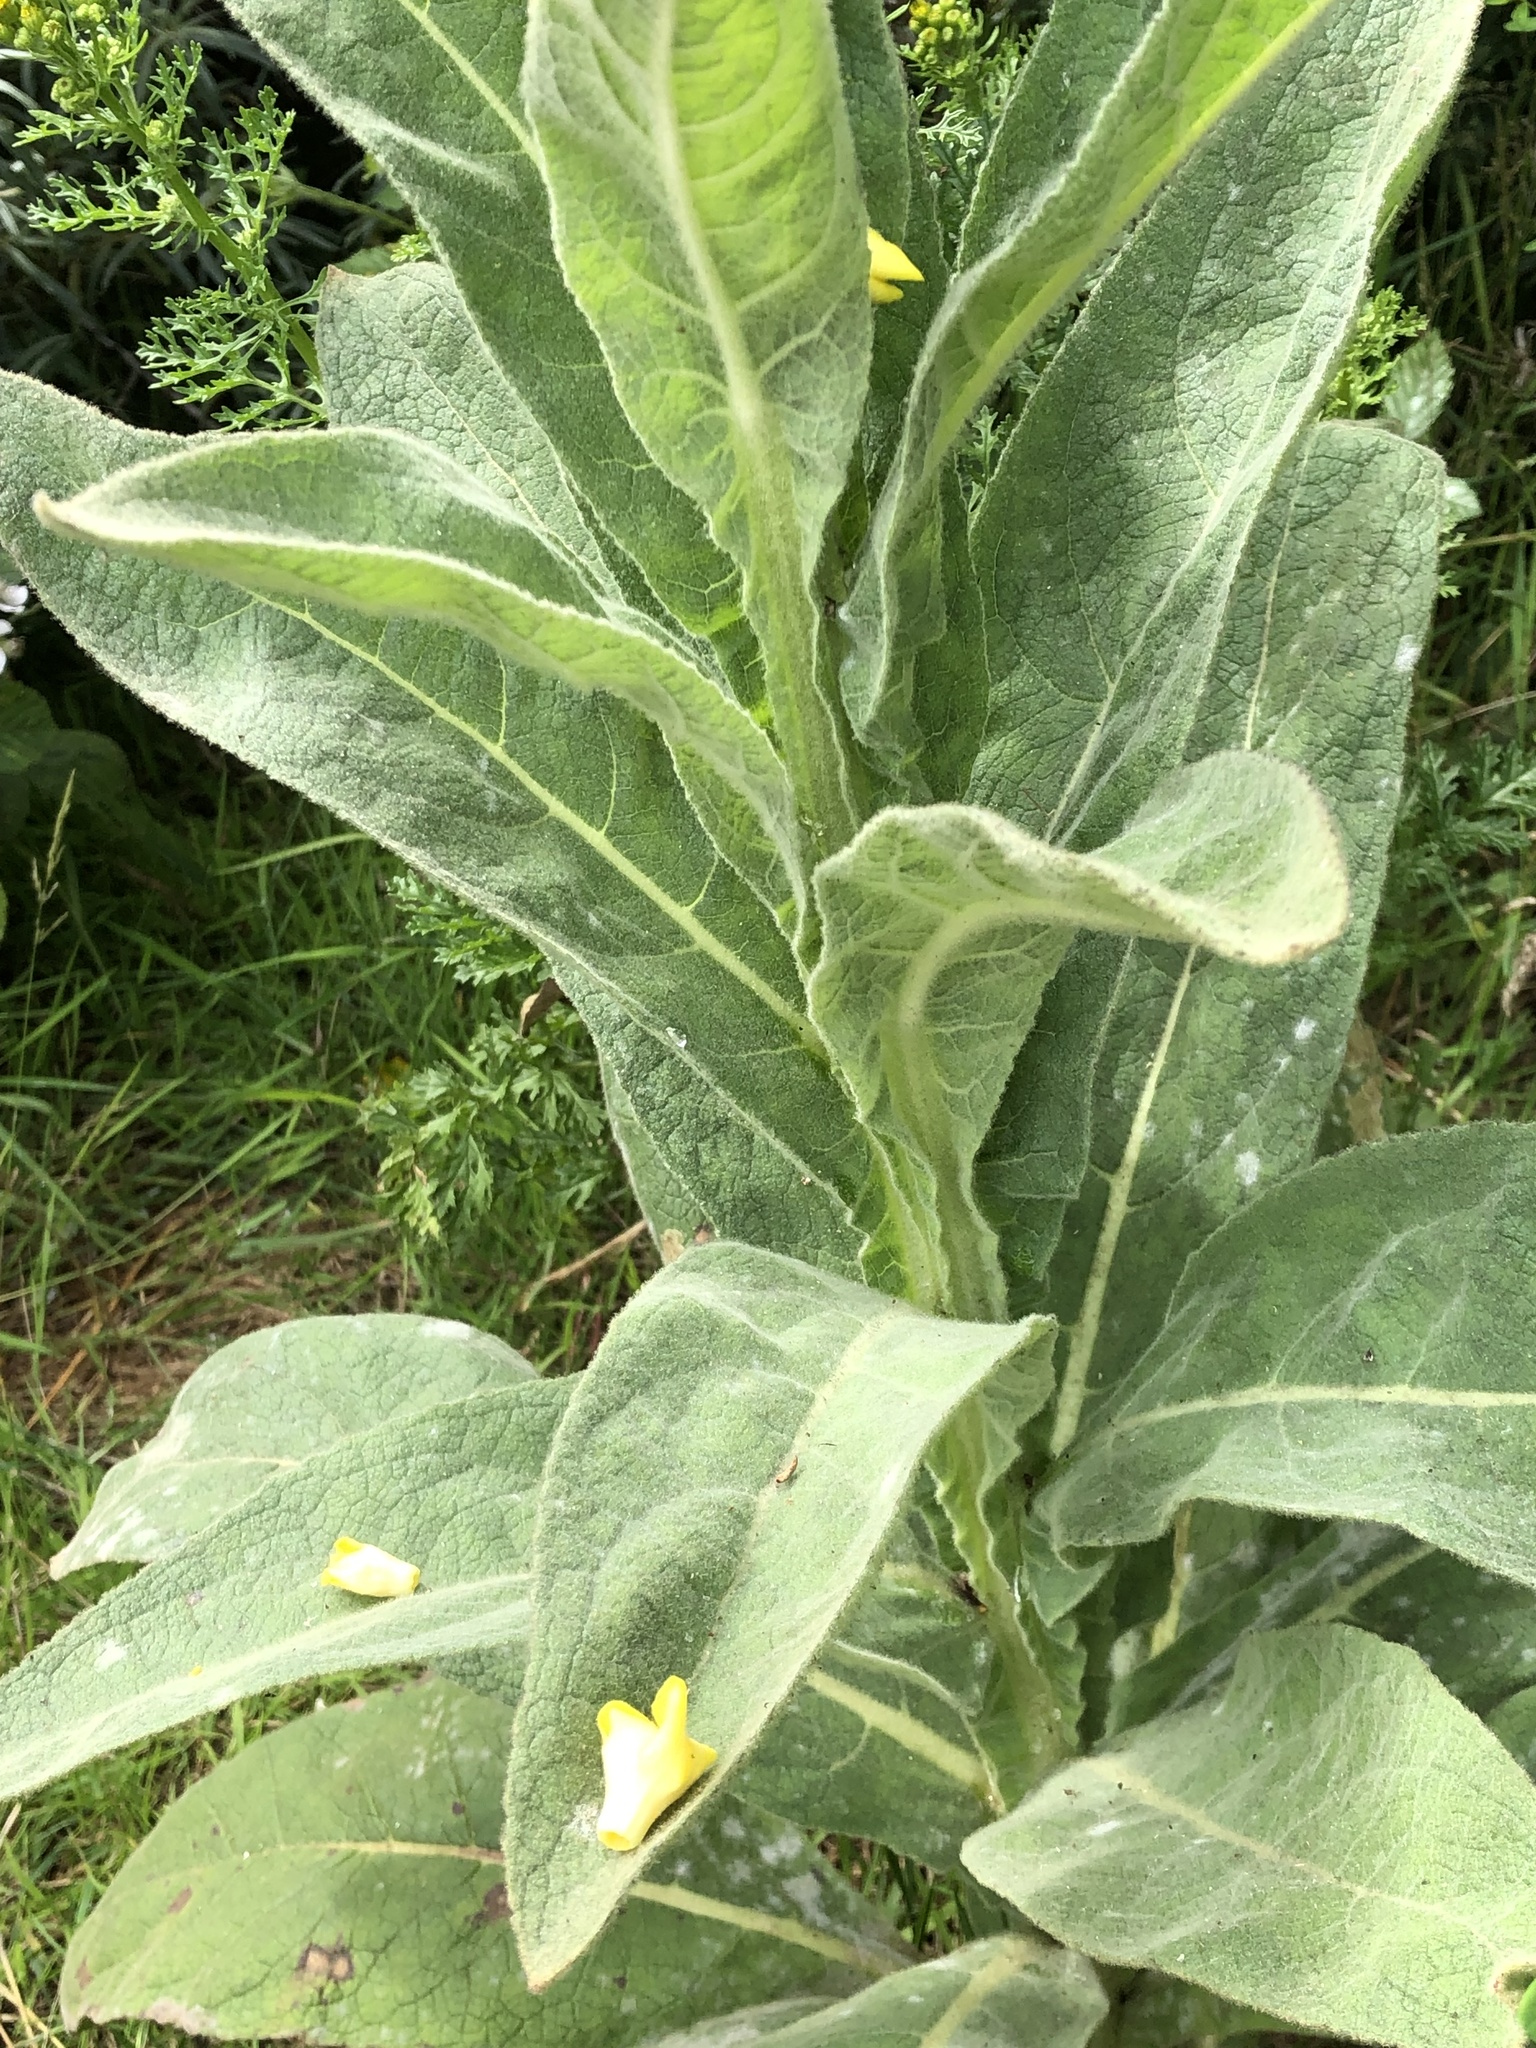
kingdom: Plantae
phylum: Tracheophyta
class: Magnoliopsida
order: Lamiales
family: Scrophulariaceae
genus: Verbascum
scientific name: Verbascum thapsus
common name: Common mullein
